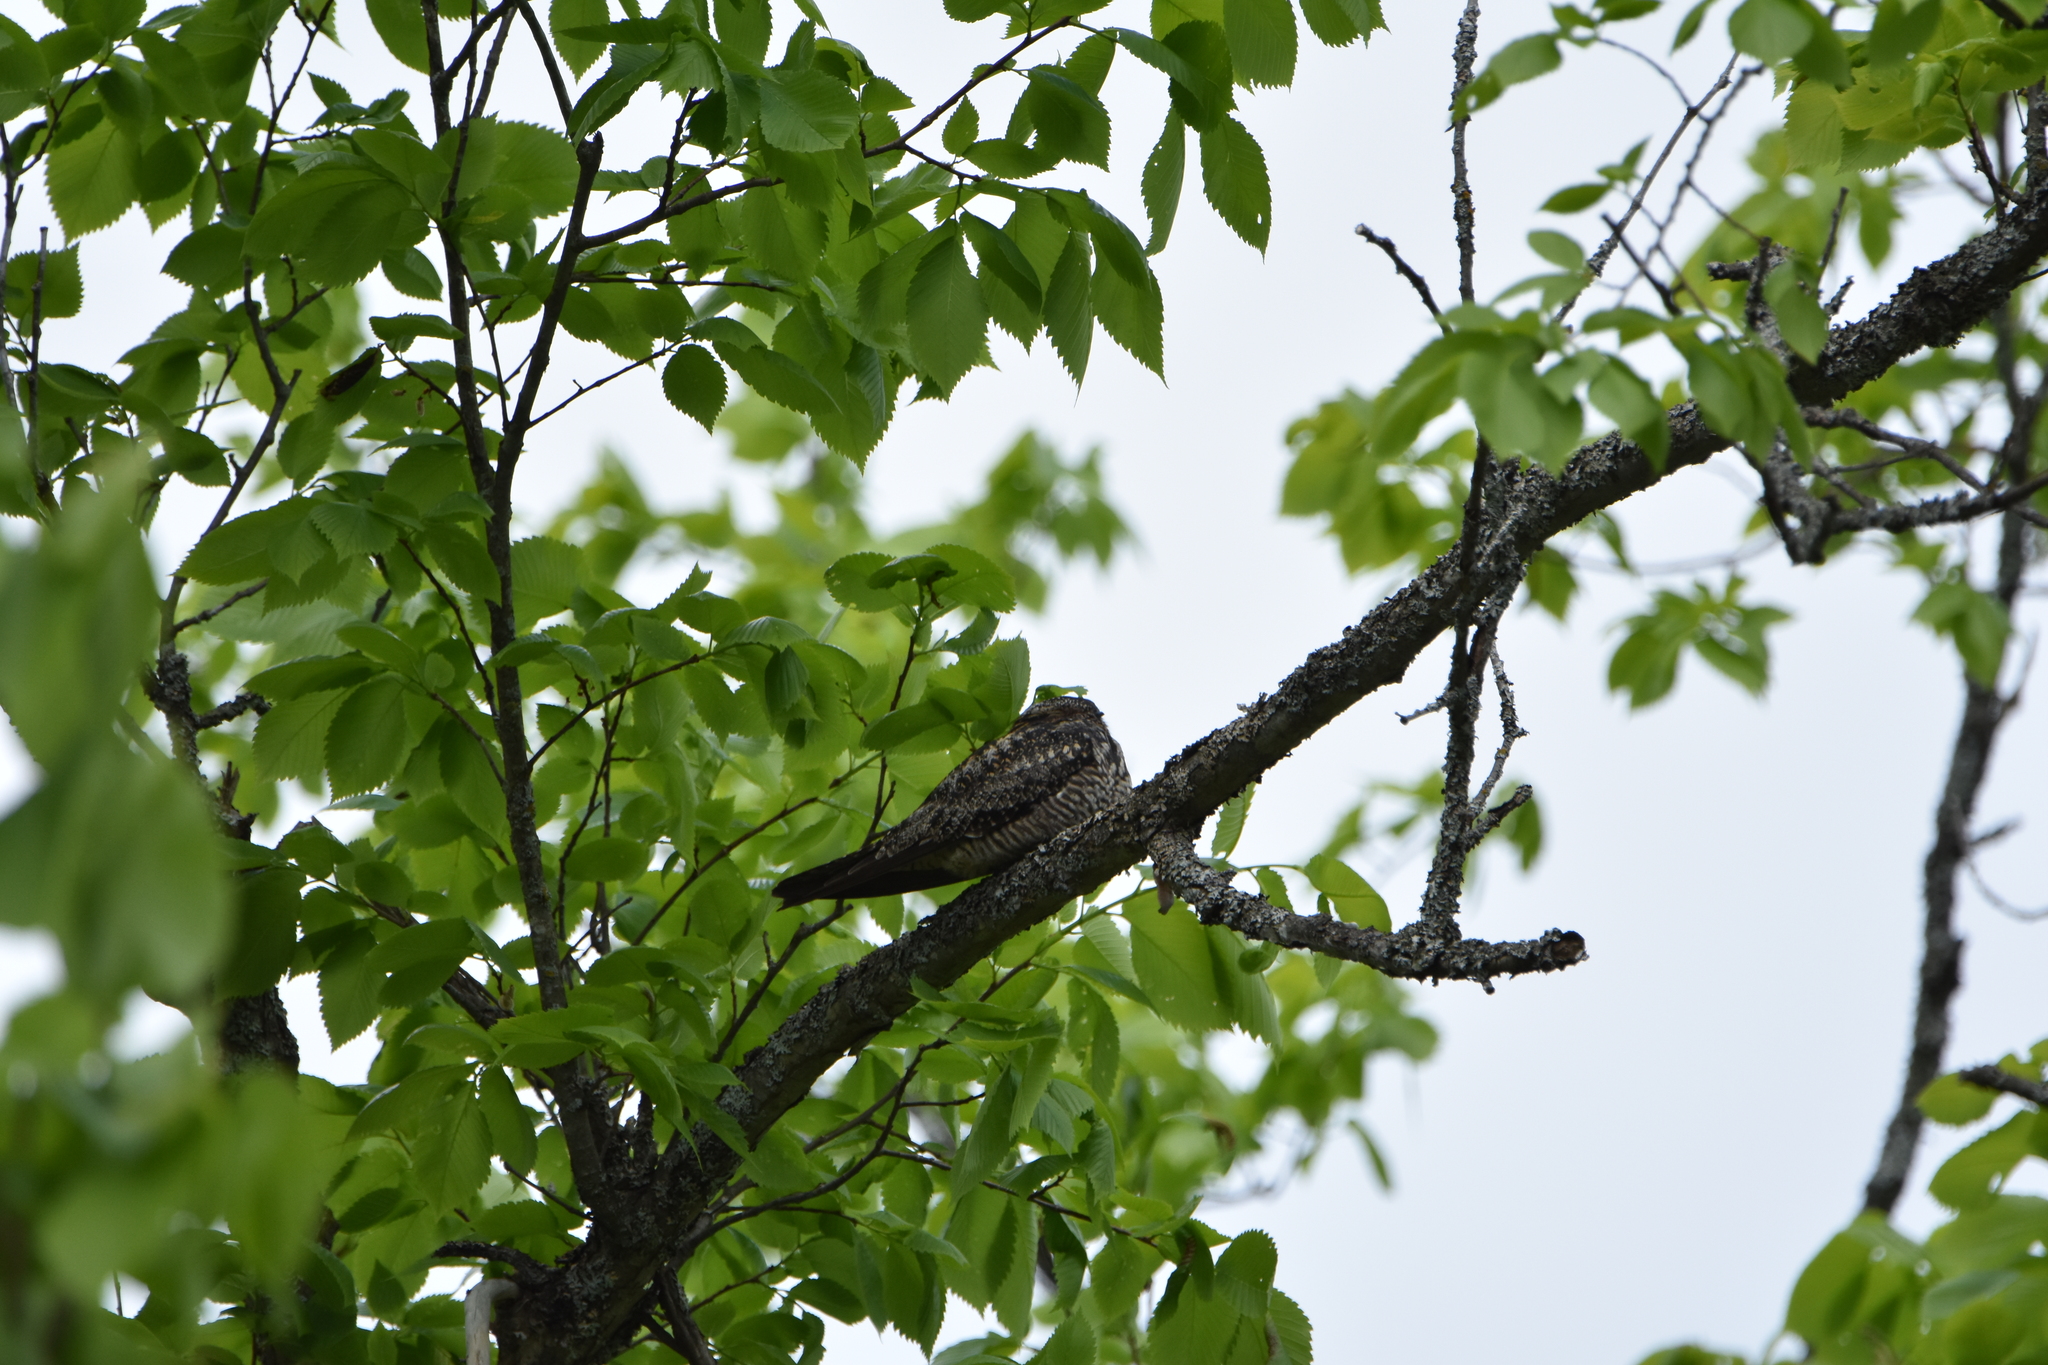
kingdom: Animalia
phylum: Chordata
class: Aves
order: Caprimulgiformes
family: Caprimulgidae
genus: Chordeiles
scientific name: Chordeiles minor
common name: Common nighthawk
